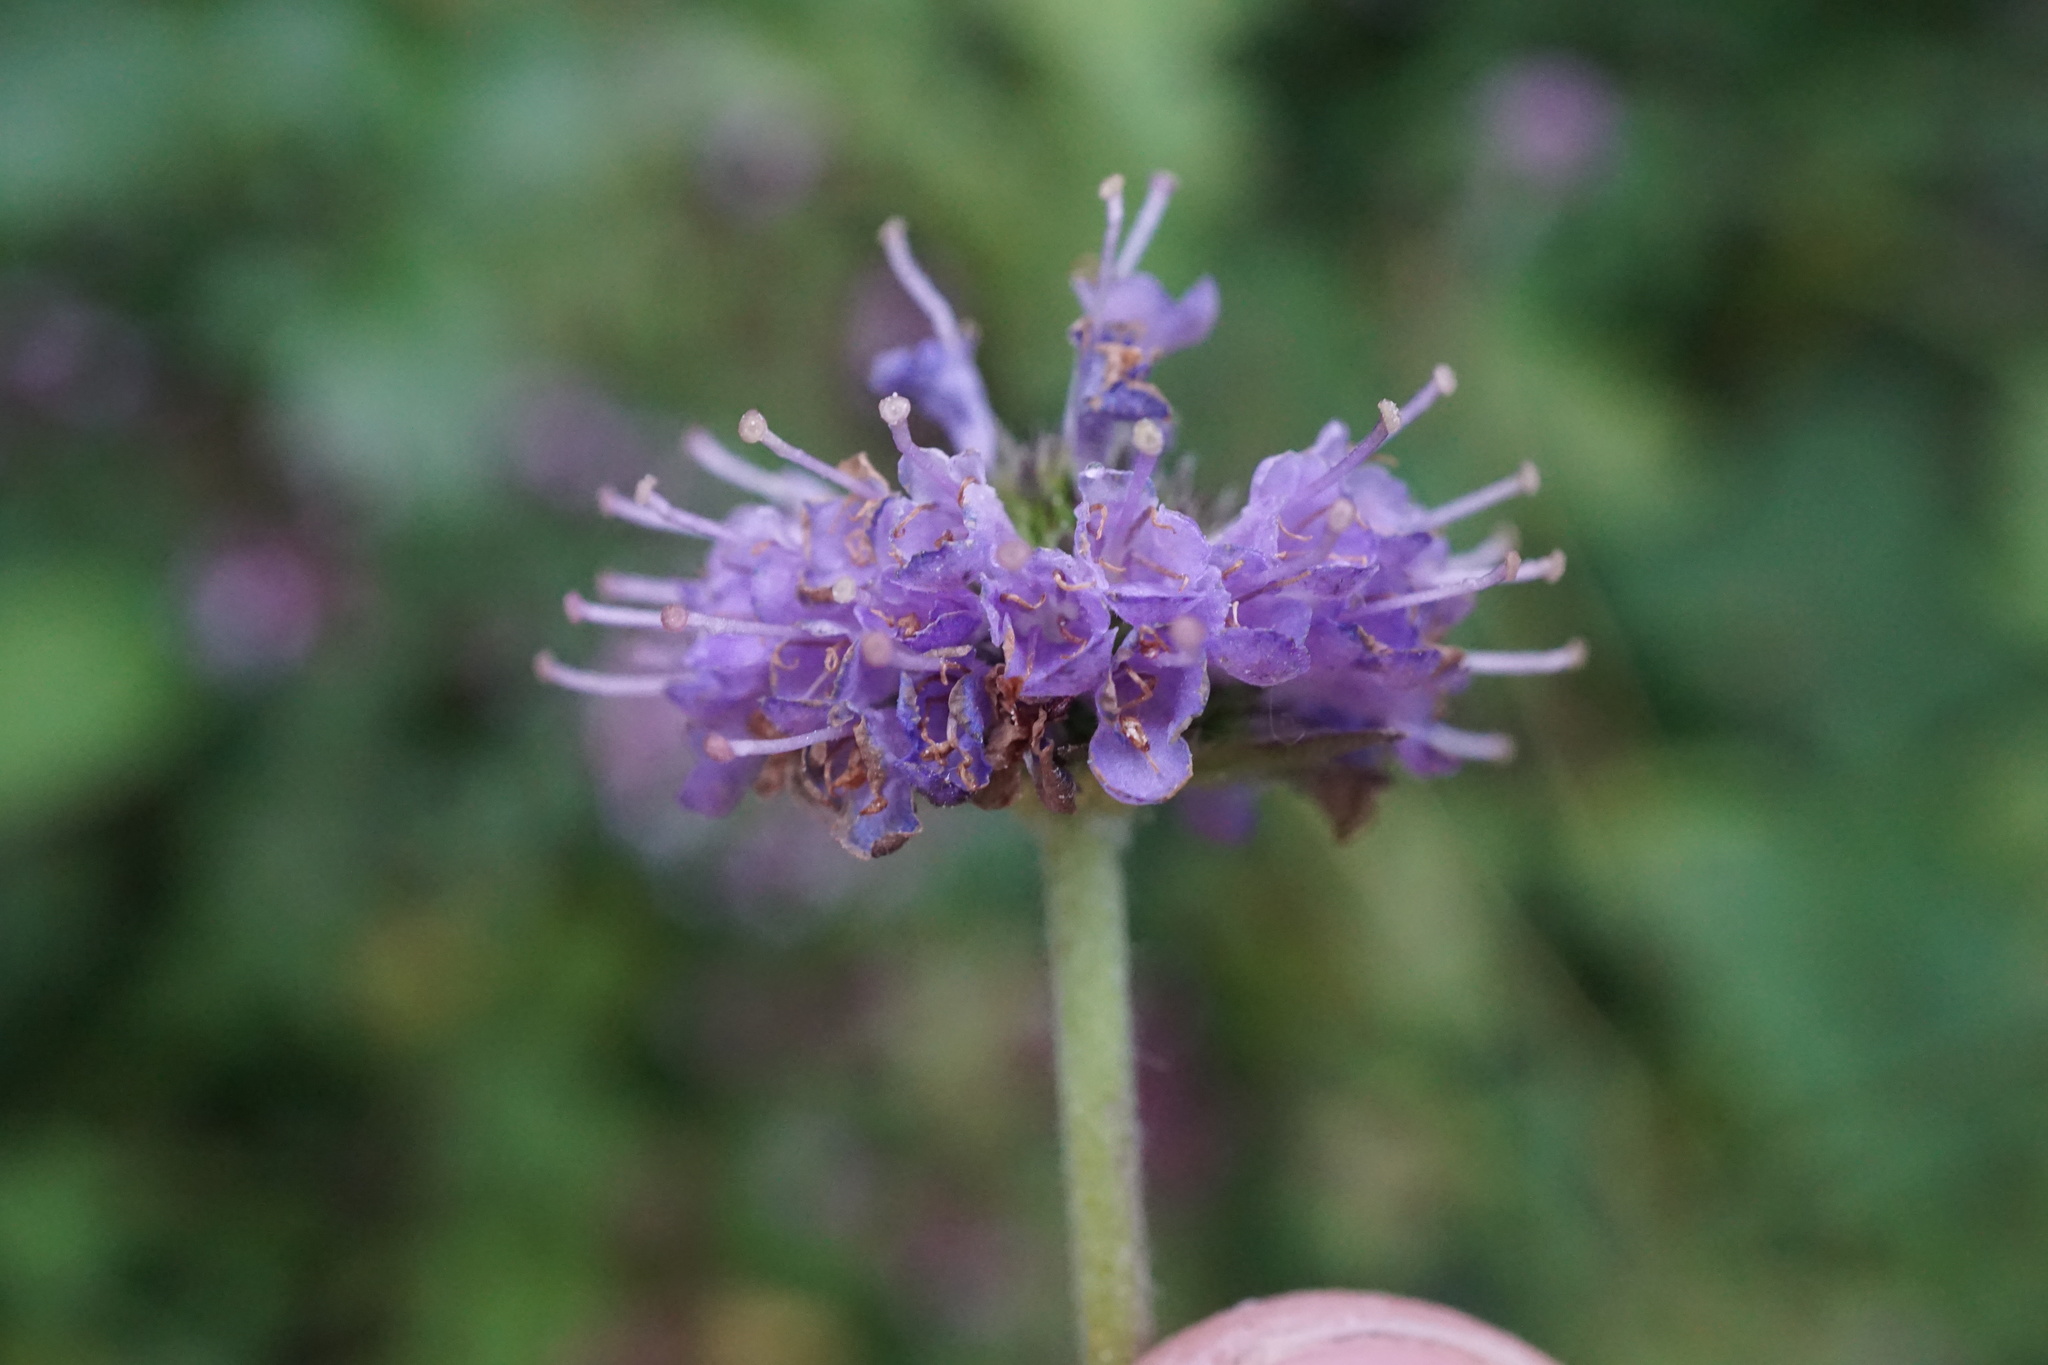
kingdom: Plantae
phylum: Tracheophyta
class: Magnoliopsida
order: Dipsacales
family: Caprifoliaceae
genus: Succisa
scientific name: Succisa pratensis
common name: Devil's-bit
